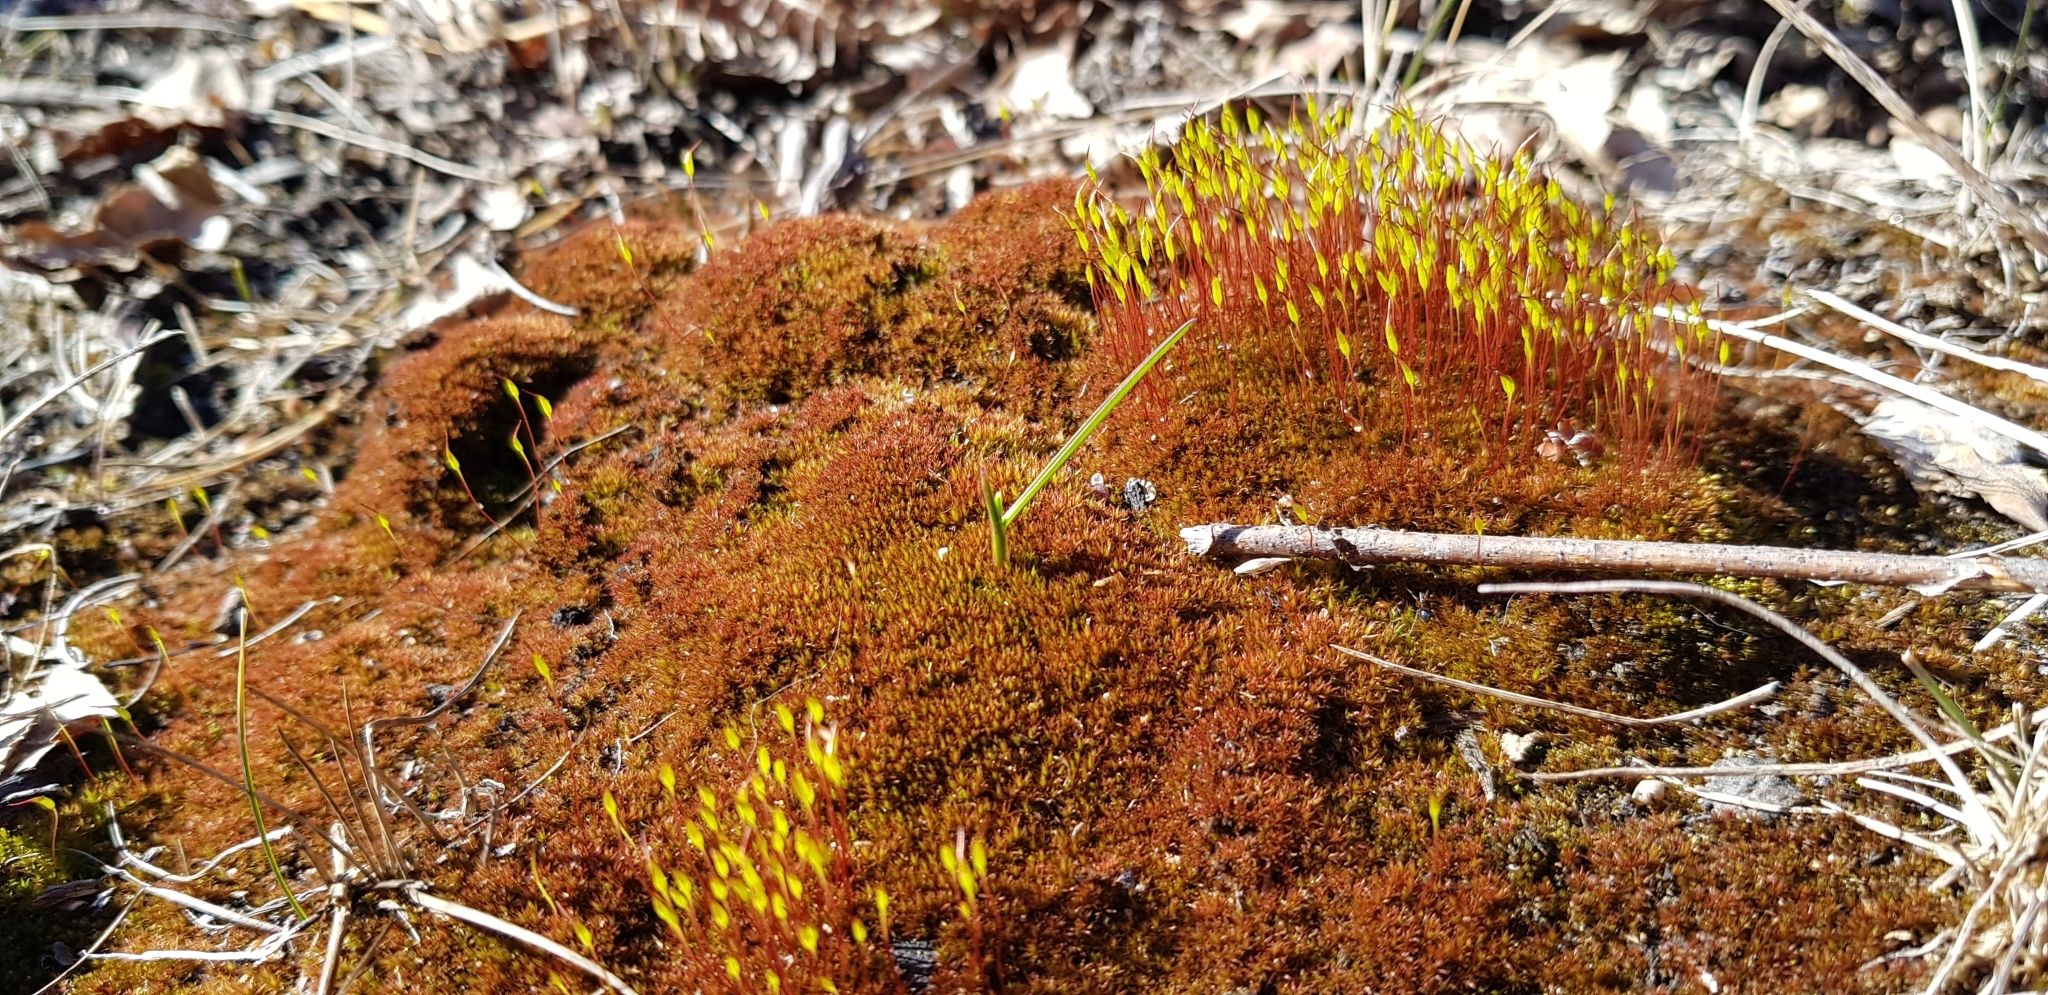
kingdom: Plantae
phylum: Bryophyta
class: Bryopsida
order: Dicranales
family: Ditrichaceae
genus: Ceratodon
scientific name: Ceratodon purpureus
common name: Redshank
